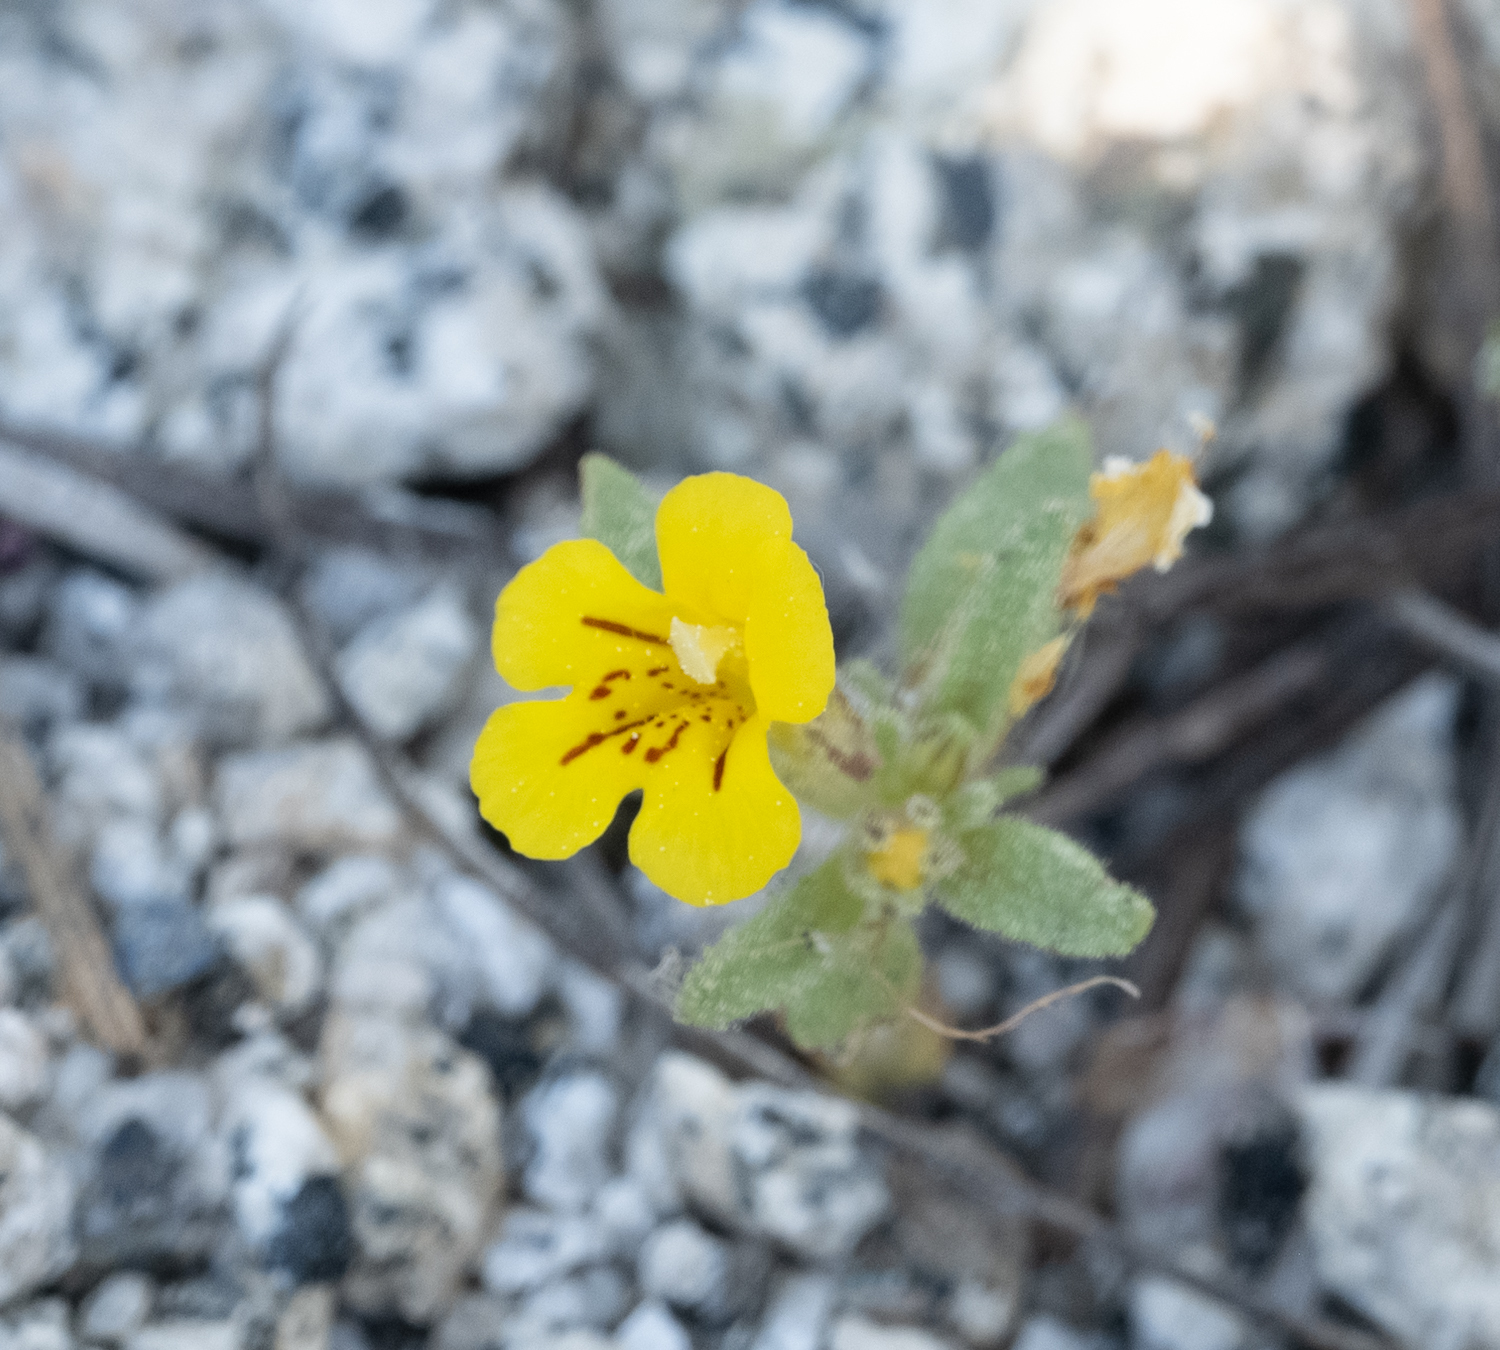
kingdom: Plantae
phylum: Tracheophyta
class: Magnoliopsida
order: Lamiales
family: Phrymaceae
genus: Diplacus
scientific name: Diplacus mephiticus
